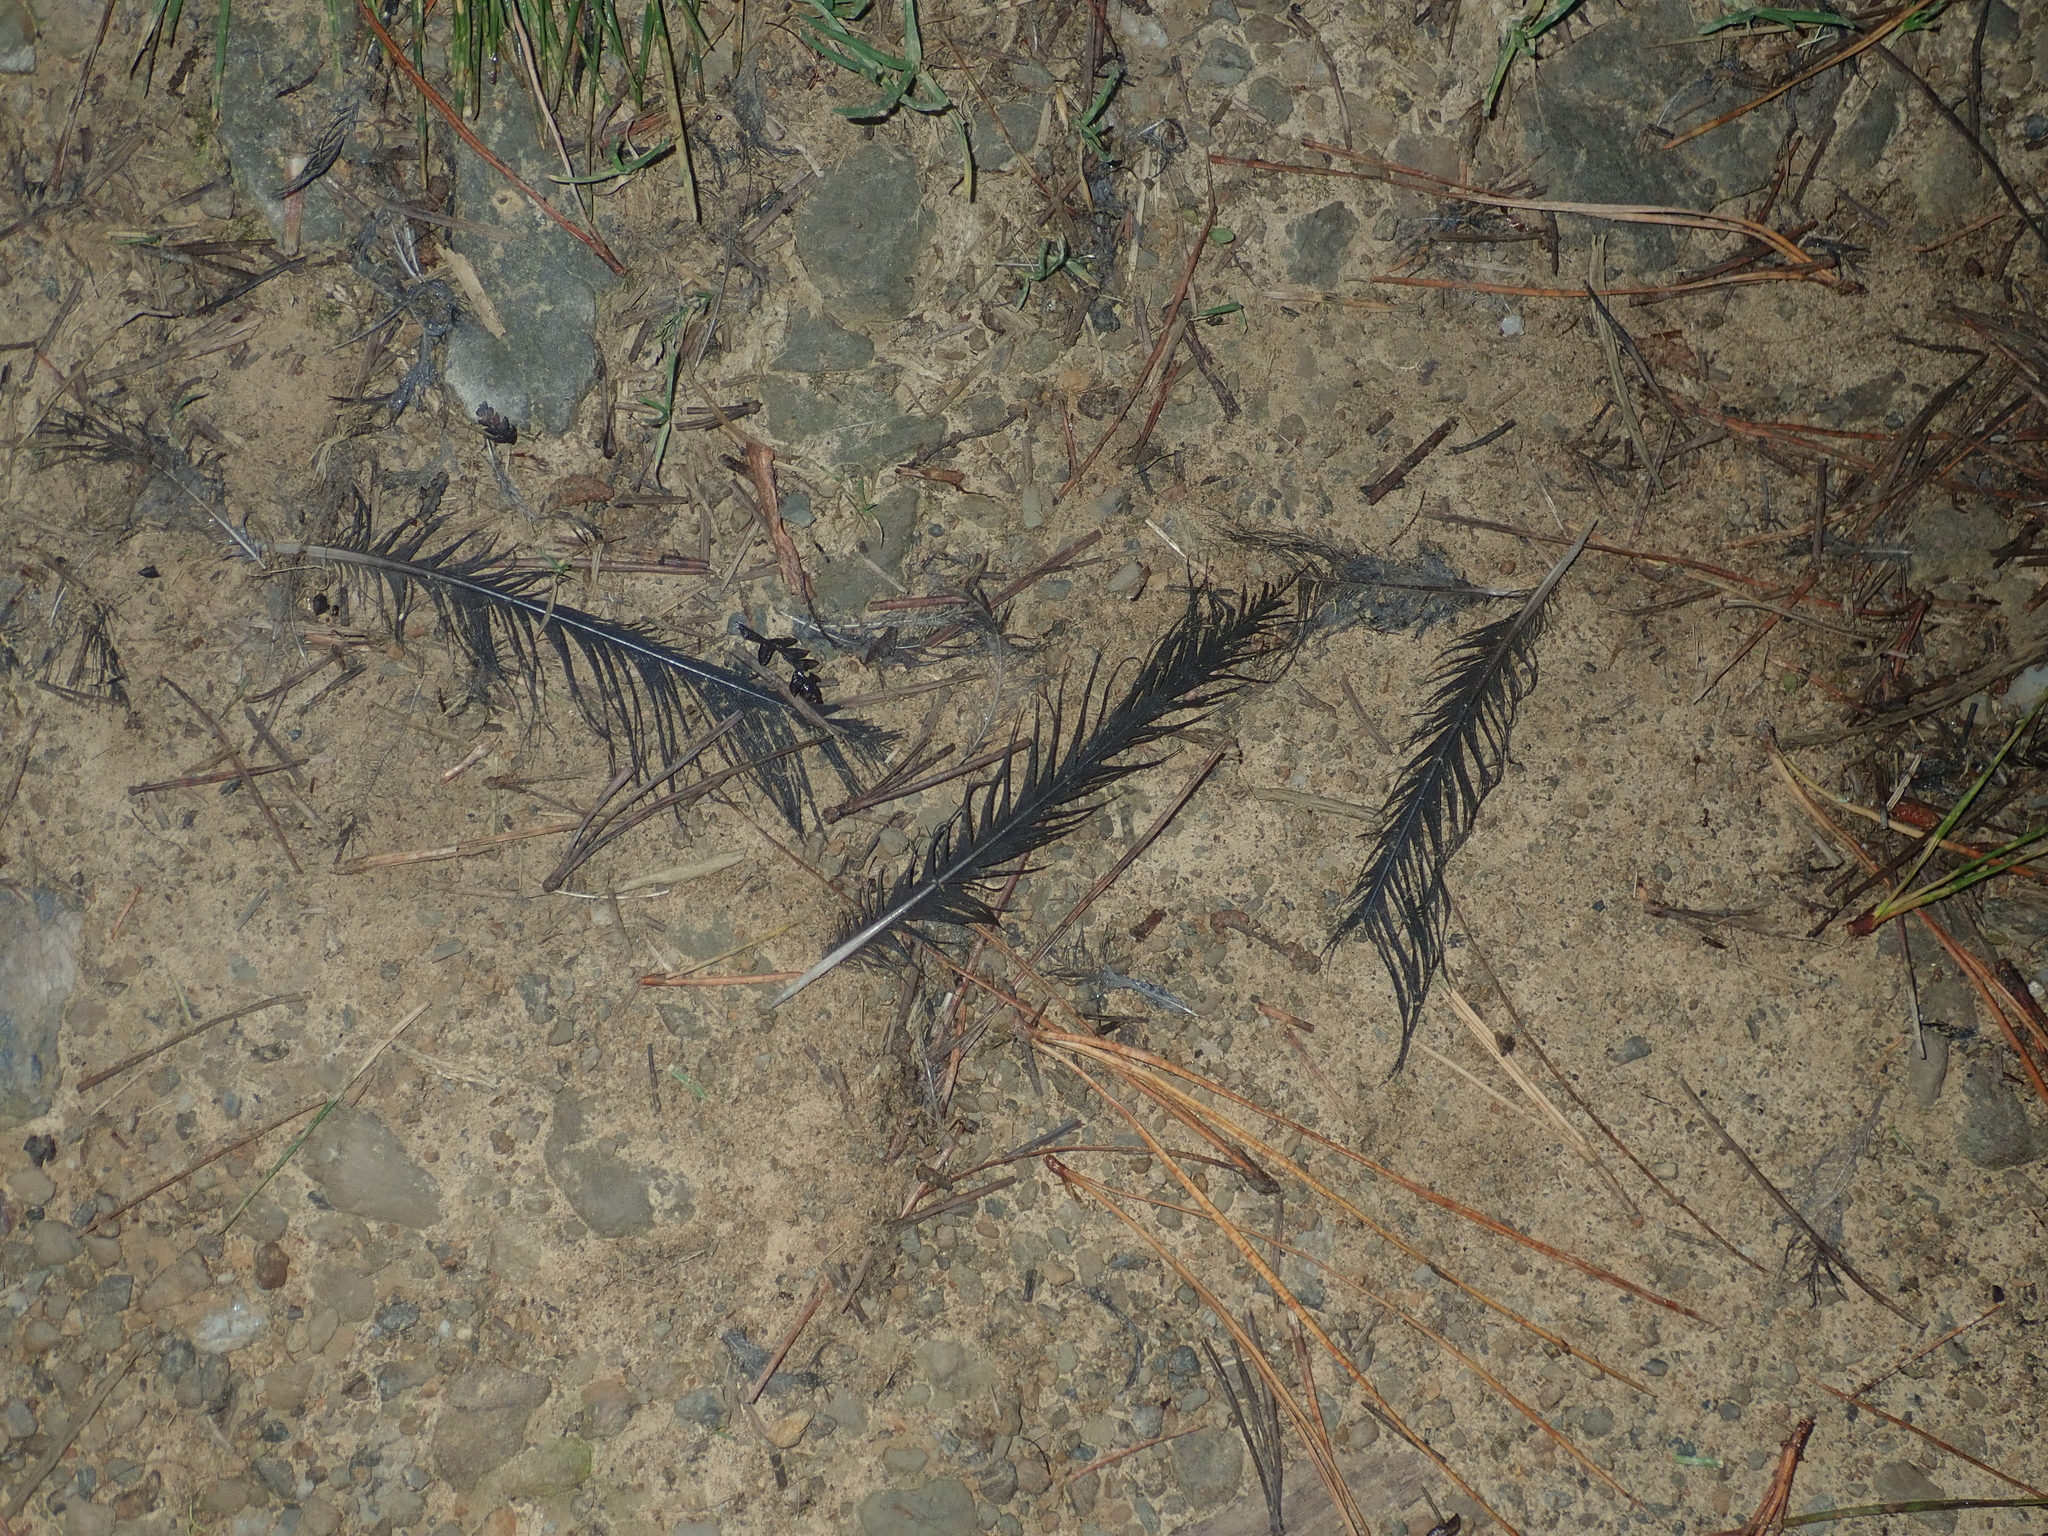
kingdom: Animalia
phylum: Chordata
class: Aves
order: Passeriformes
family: Turdidae
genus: Turdus
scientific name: Turdus merula
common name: Common blackbird
